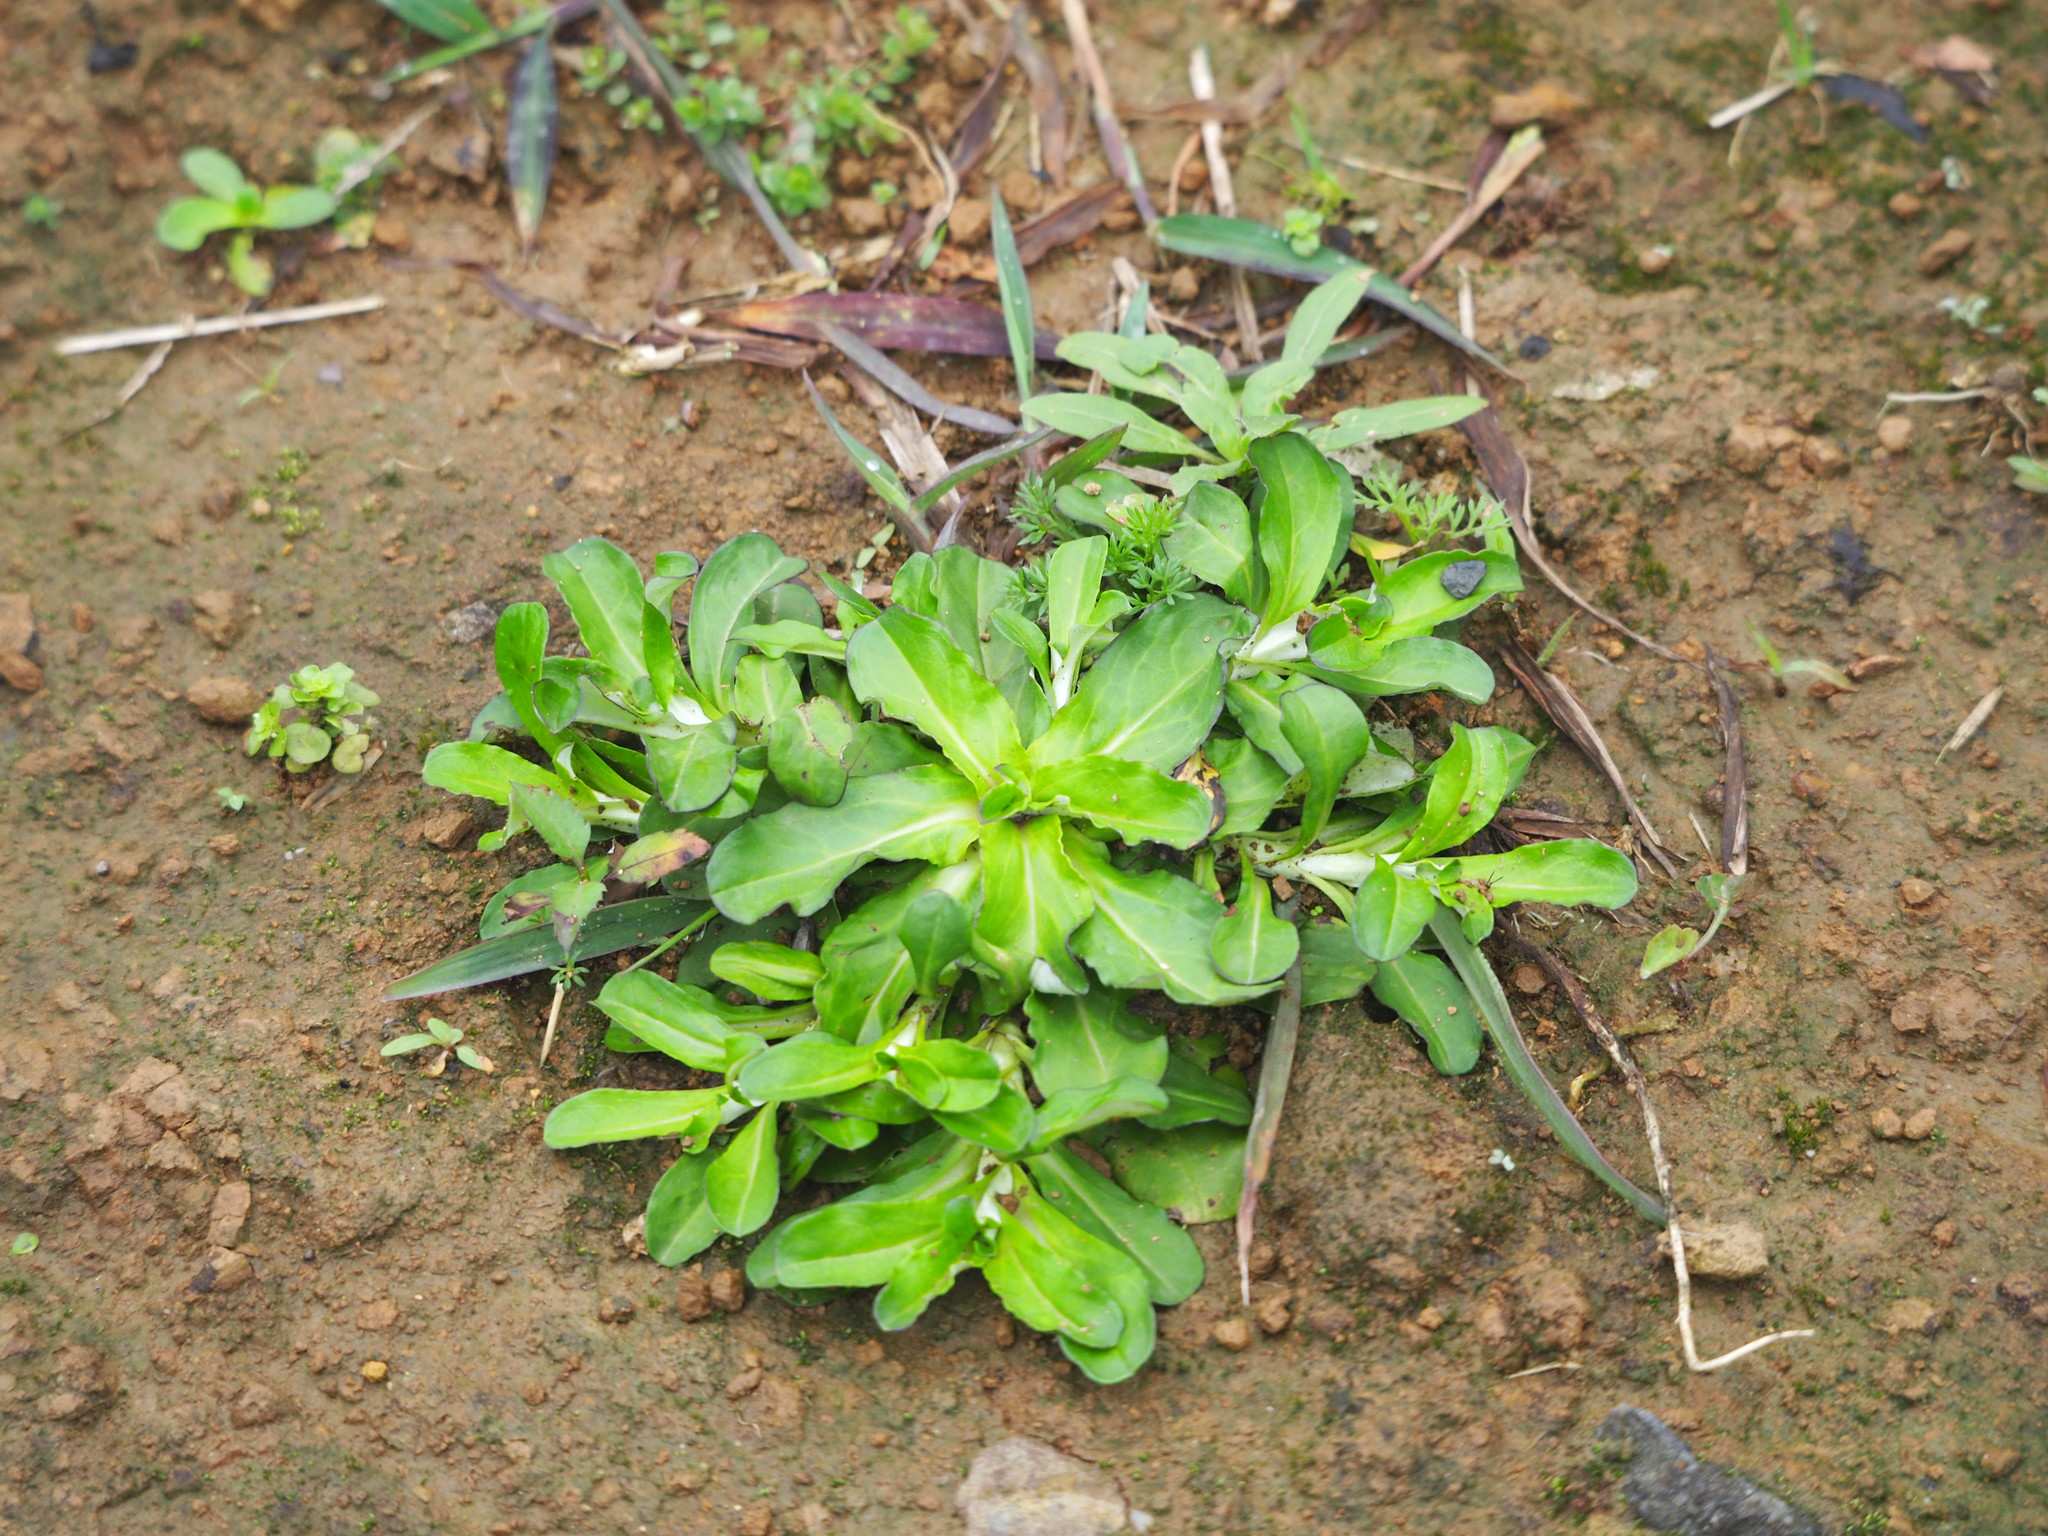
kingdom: Plantae
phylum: Tracheophyta
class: Magnoliopsida
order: Asterales
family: Asteraceae
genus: Gamochaeta
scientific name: Gamochaeta americana
